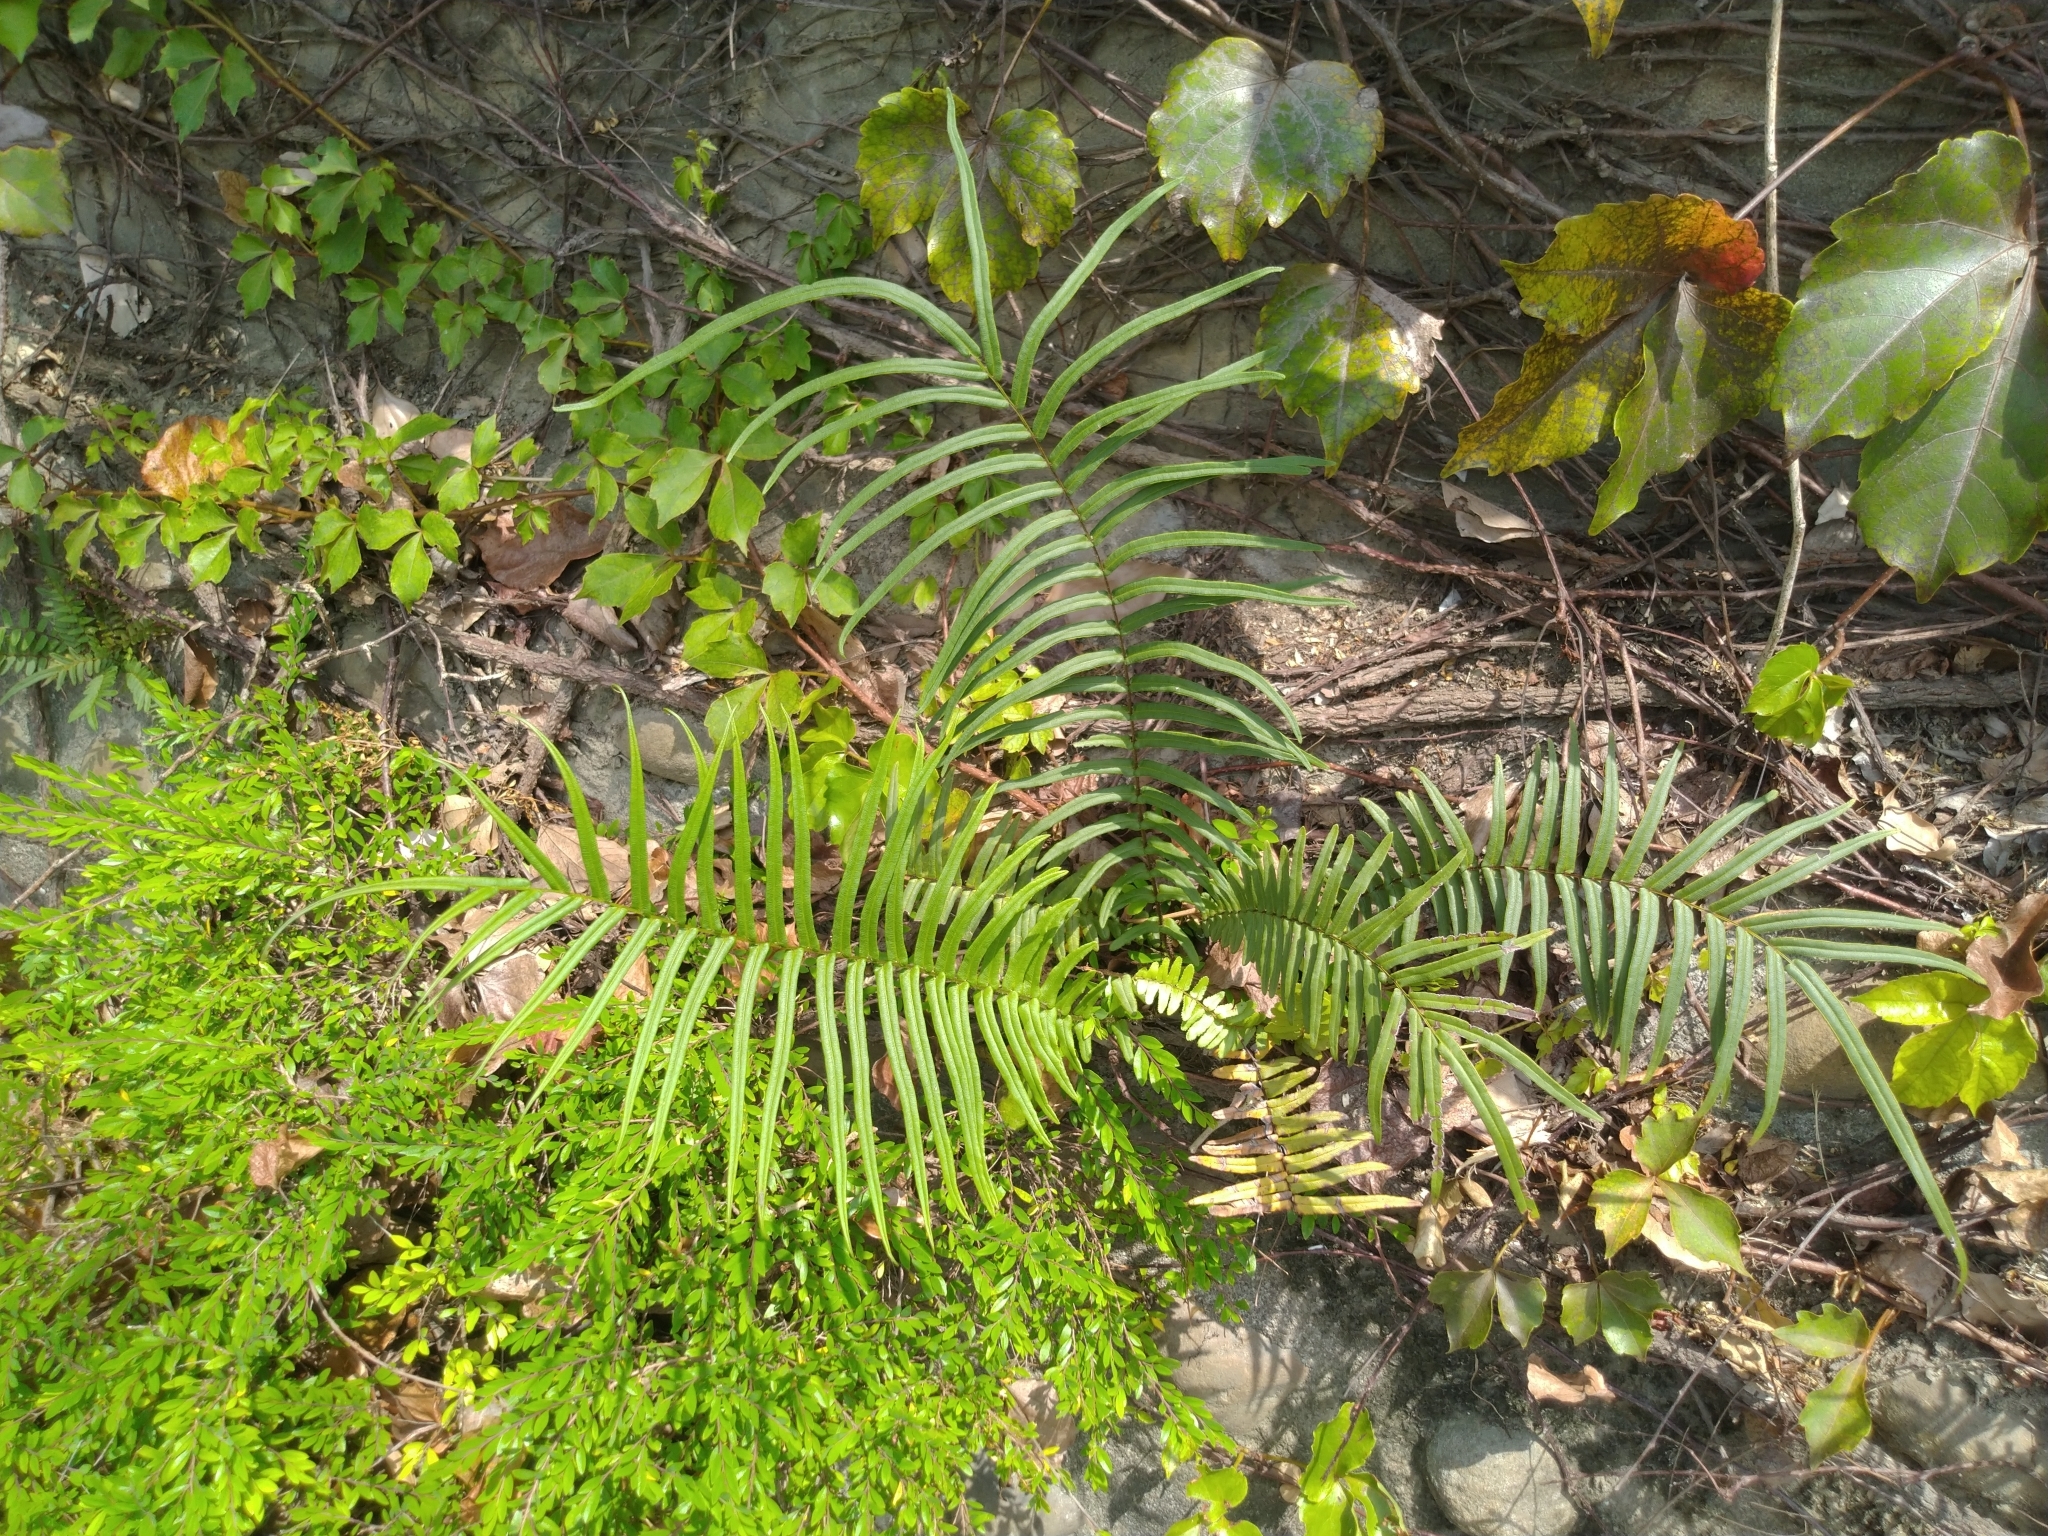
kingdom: Plantae
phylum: Tracheophyta
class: Polypodiopsida
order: Polypodiales
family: Pteridaceae
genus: Pteris
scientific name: Pteris vittata
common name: Ladder brake
